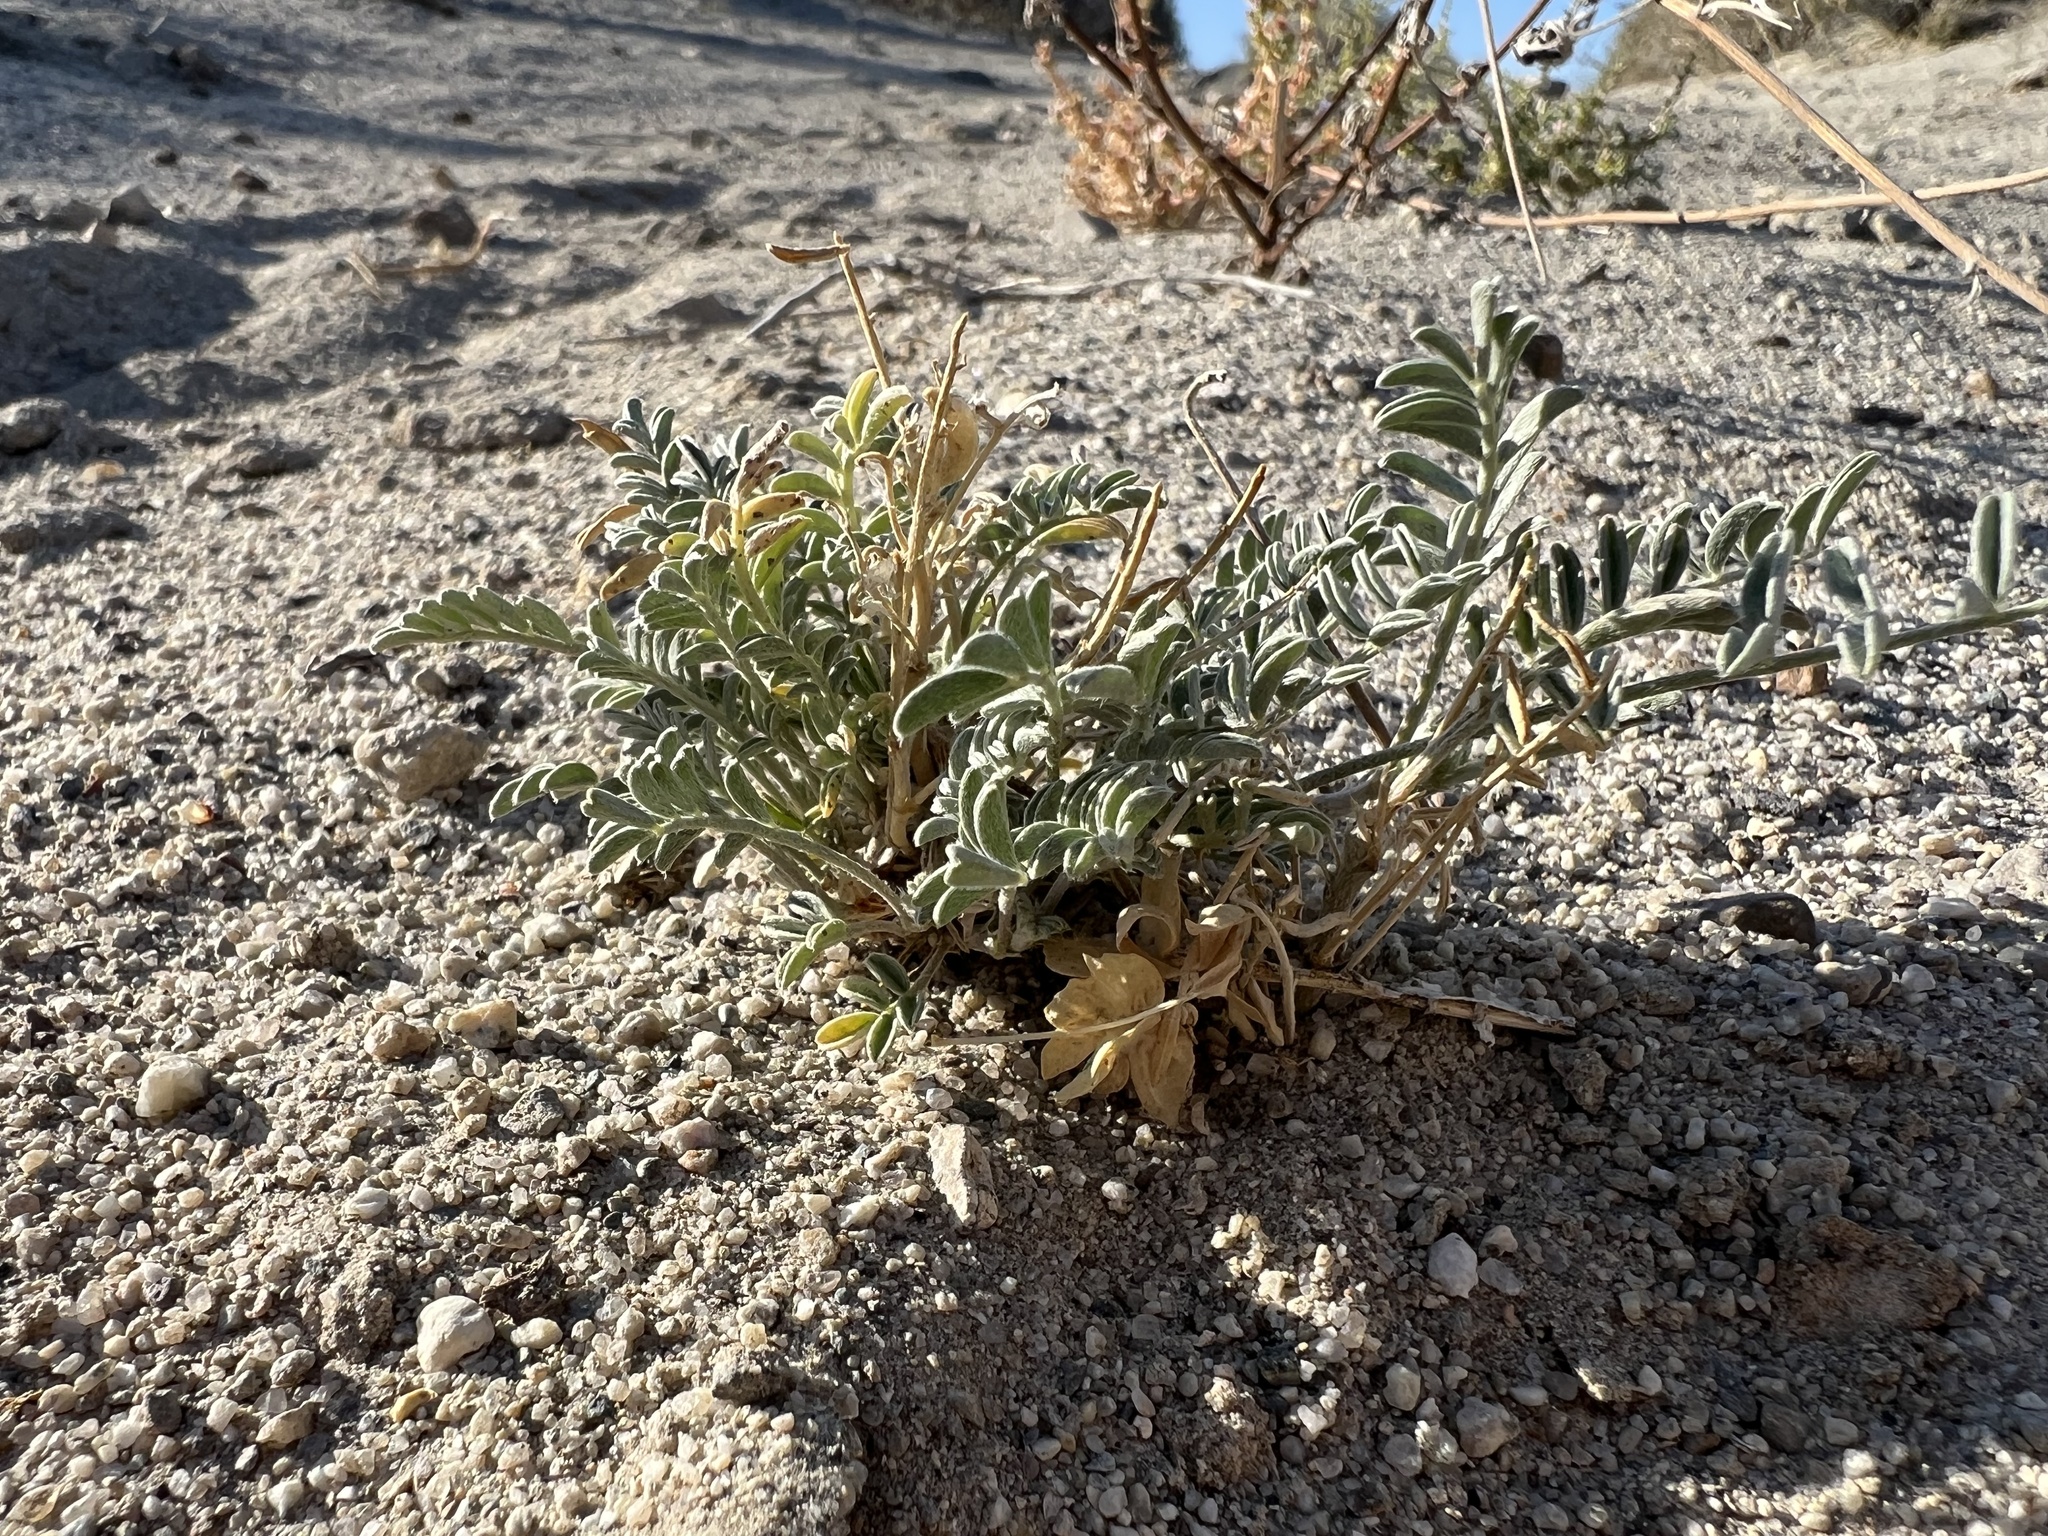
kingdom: Plantae
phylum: Tracheophyta
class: Magnoliopsida
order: Fabales
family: Fabaceae
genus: Astragalus
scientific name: Astragalus geyeri
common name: Geyer's milkvetch
